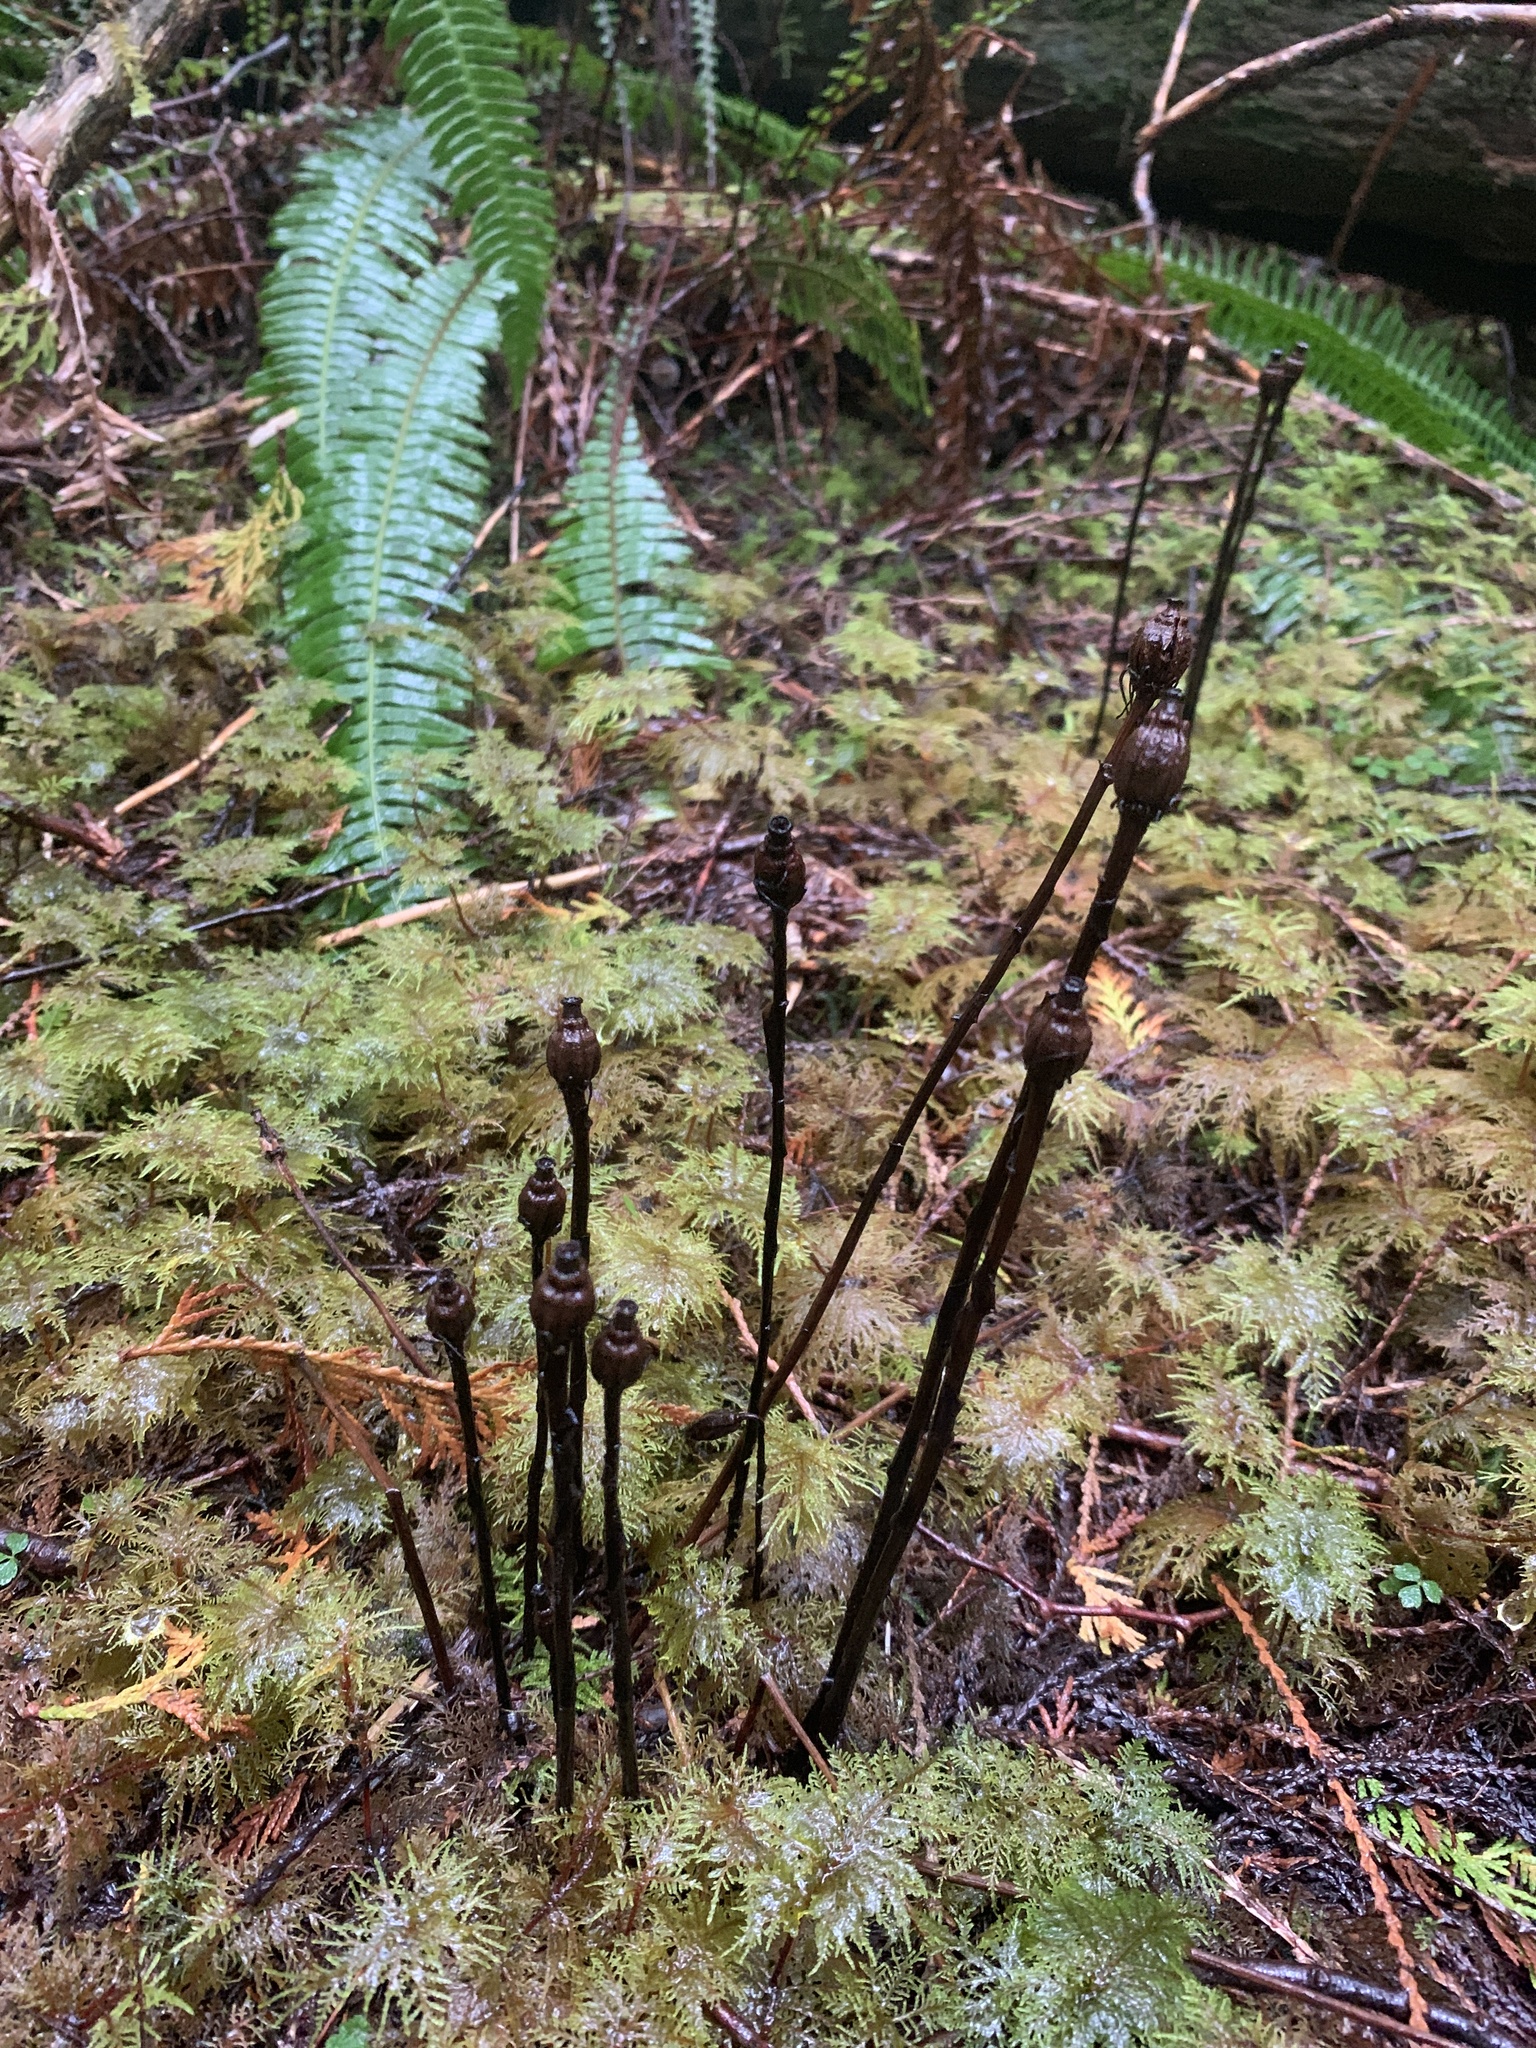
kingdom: Plantae
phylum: Tracheophyta
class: Magnoliopsida
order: Ericales
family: Ericaceae
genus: Monotropa
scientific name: Monotropa uniflora
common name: Convulsion root
